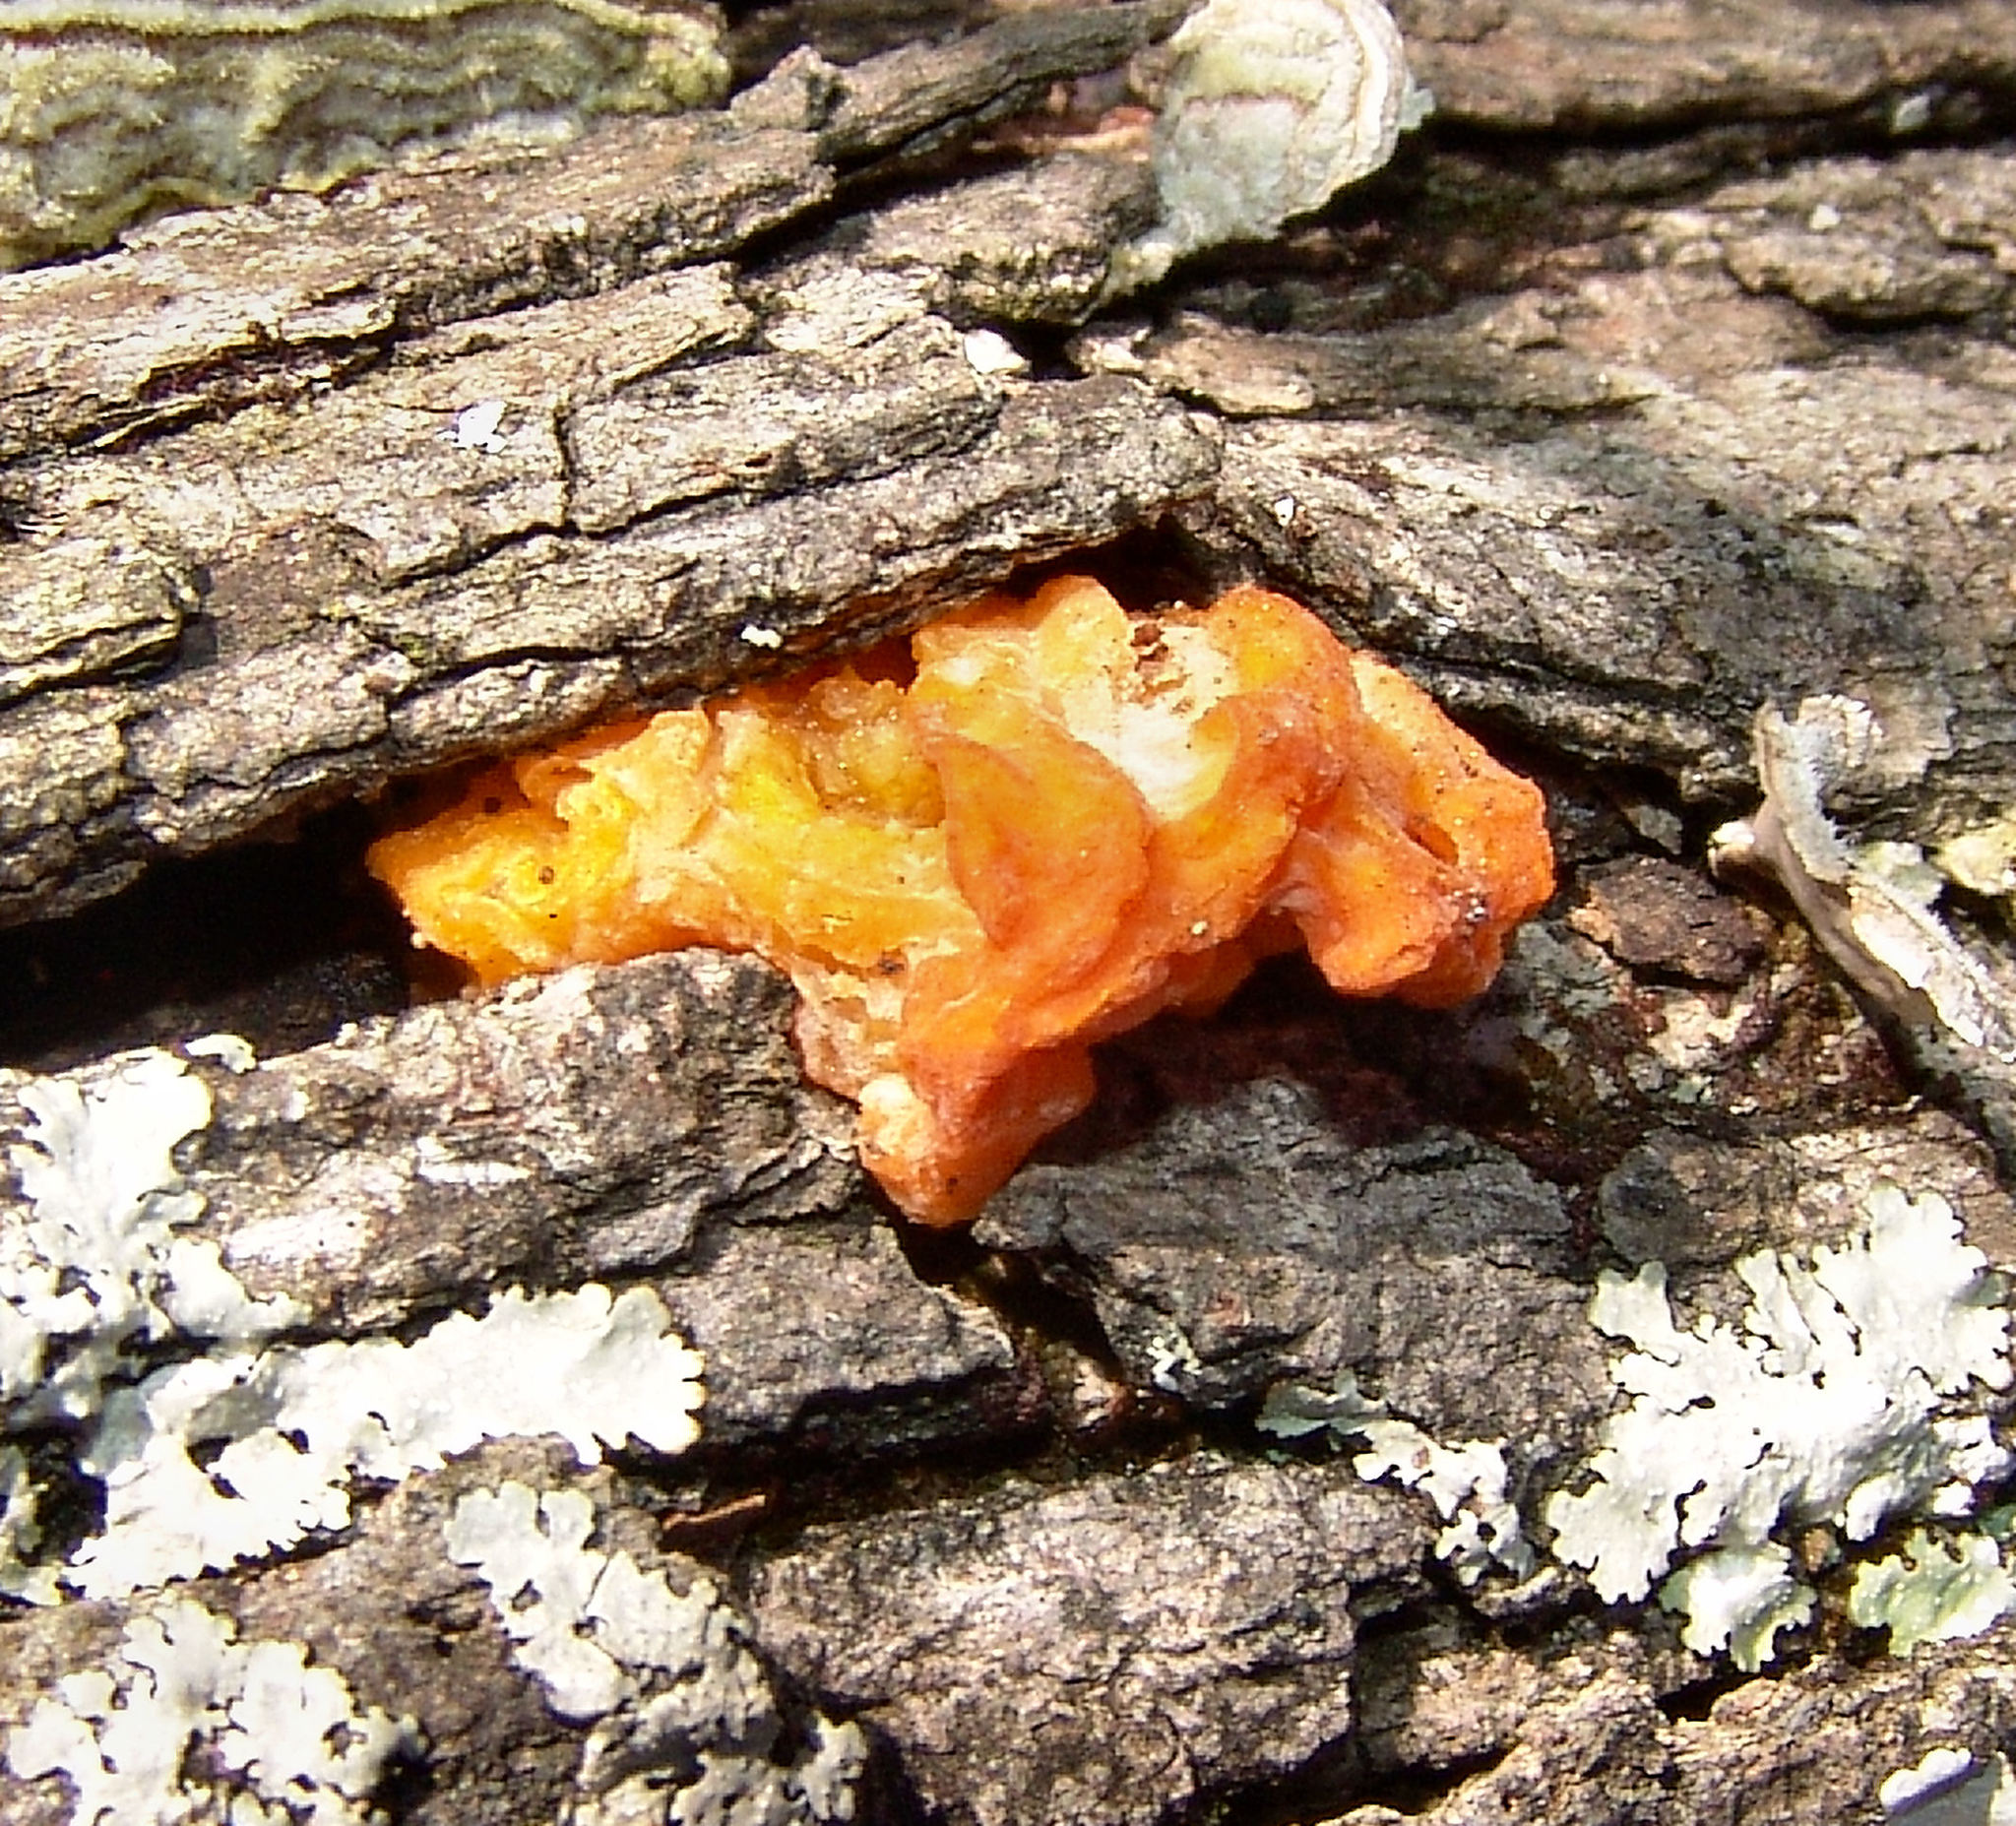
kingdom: Fungi
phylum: Basidiomycota
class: Tremellomycetes
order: Tremellales
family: Naemateliaceae
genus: Naematelia
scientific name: Naematelia aurantia
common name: Golden ear
